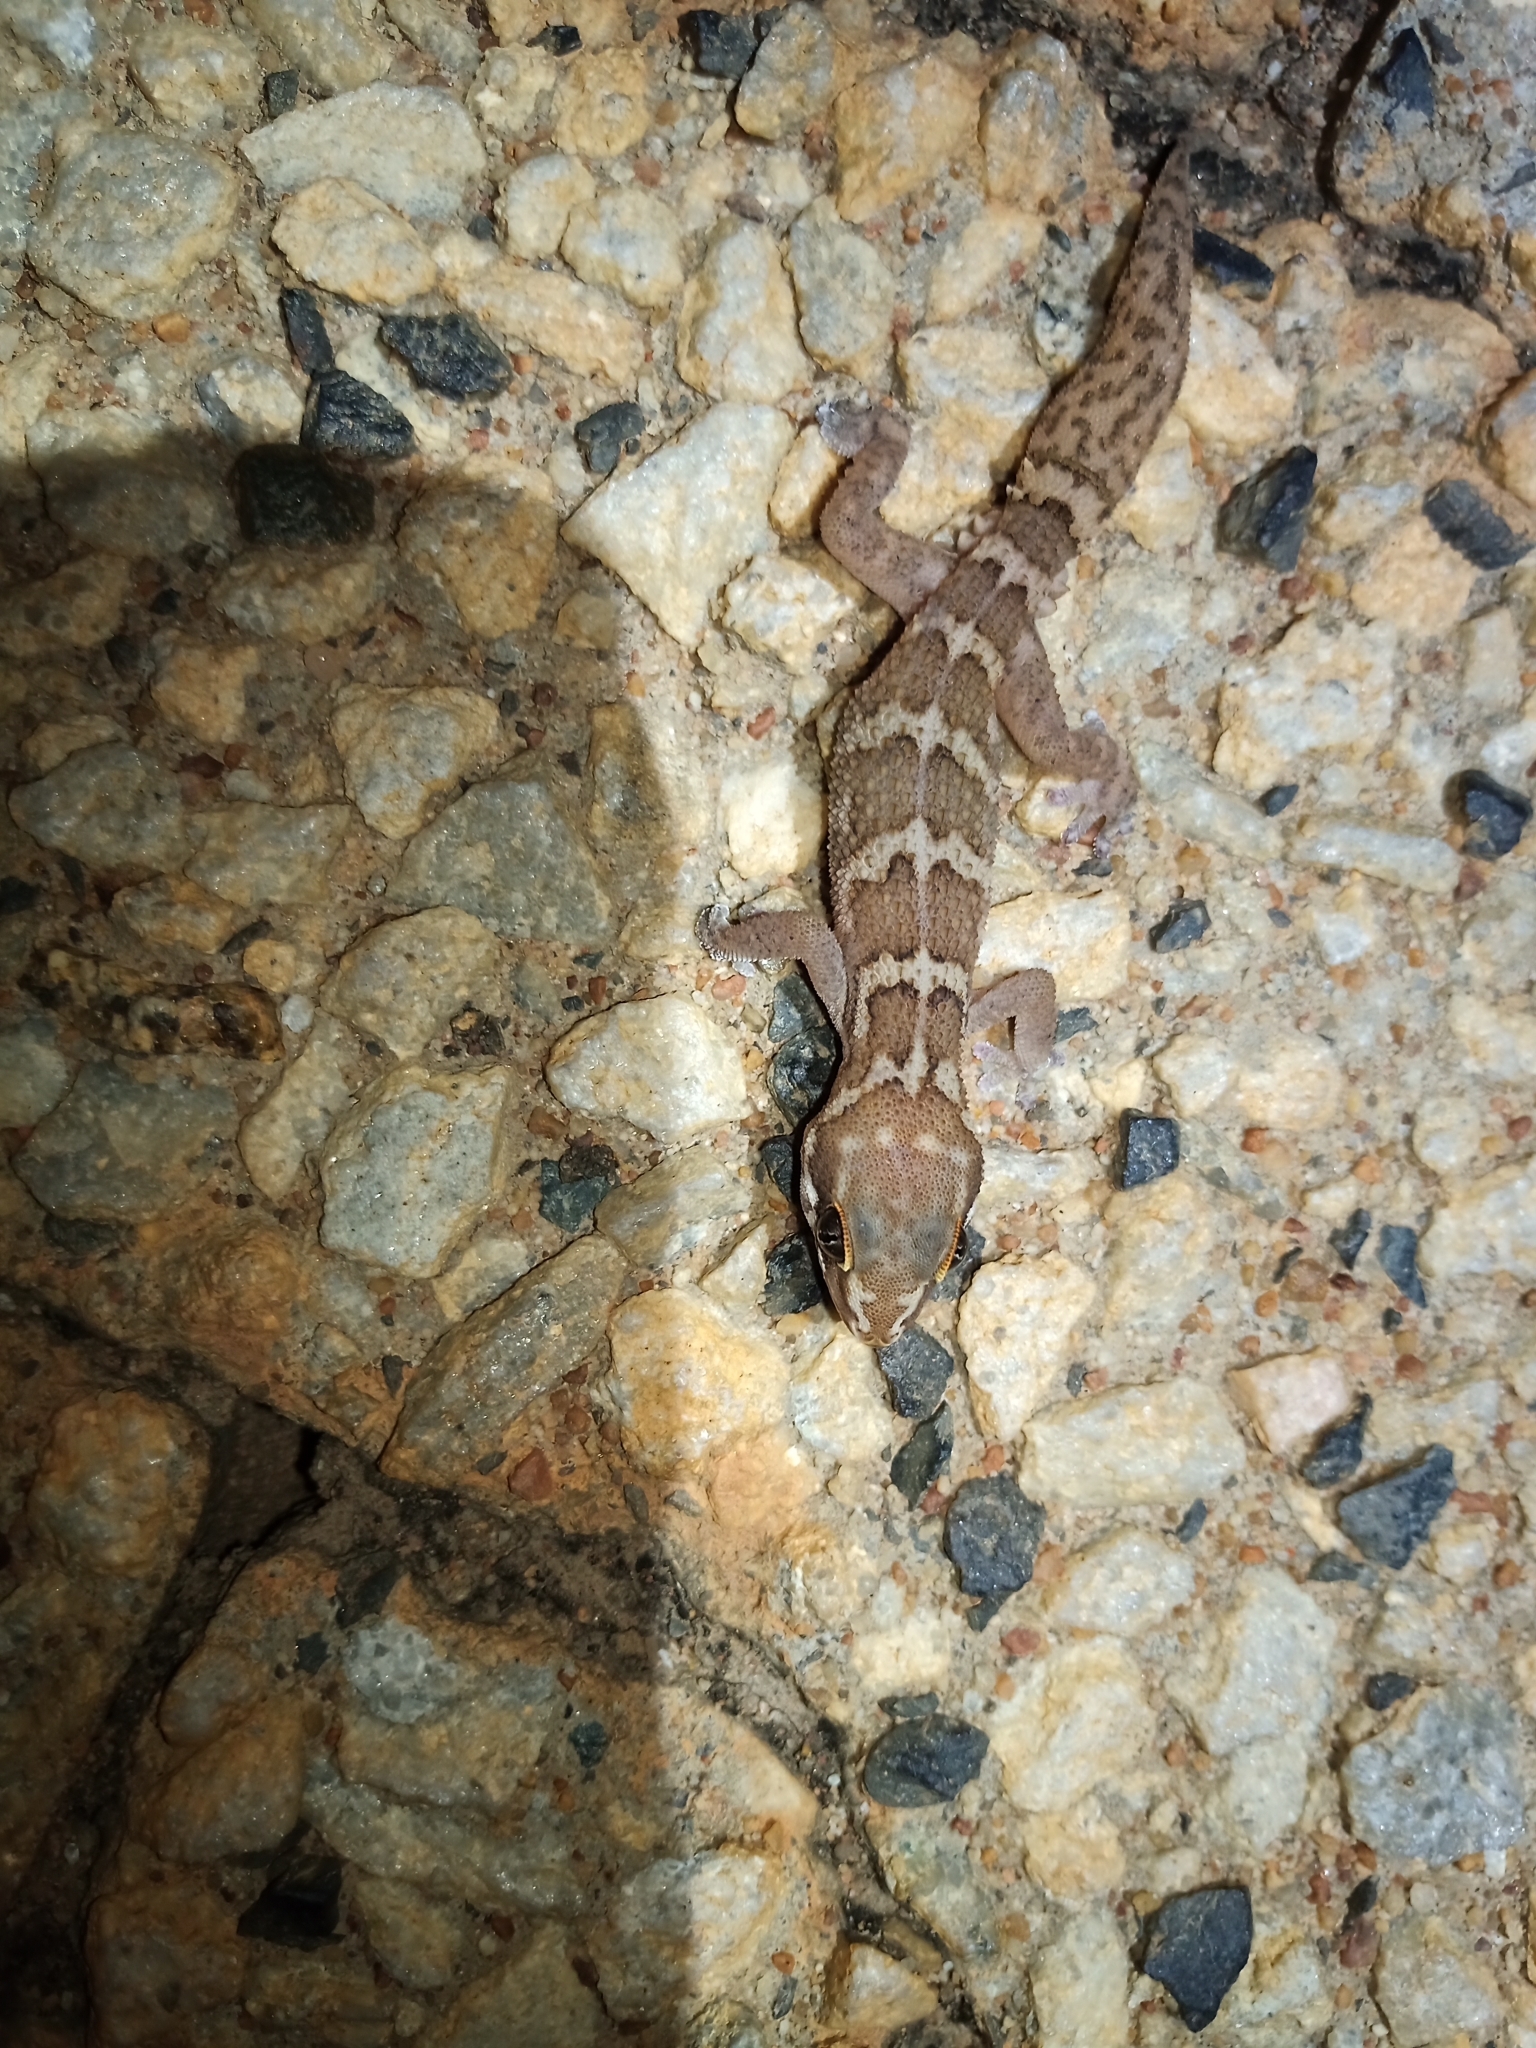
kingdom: Animalia
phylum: Chordata
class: Squamata
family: Gekkonidae
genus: Pachydactylus
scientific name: Pachydactylus formosus
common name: Southern rough gecko
